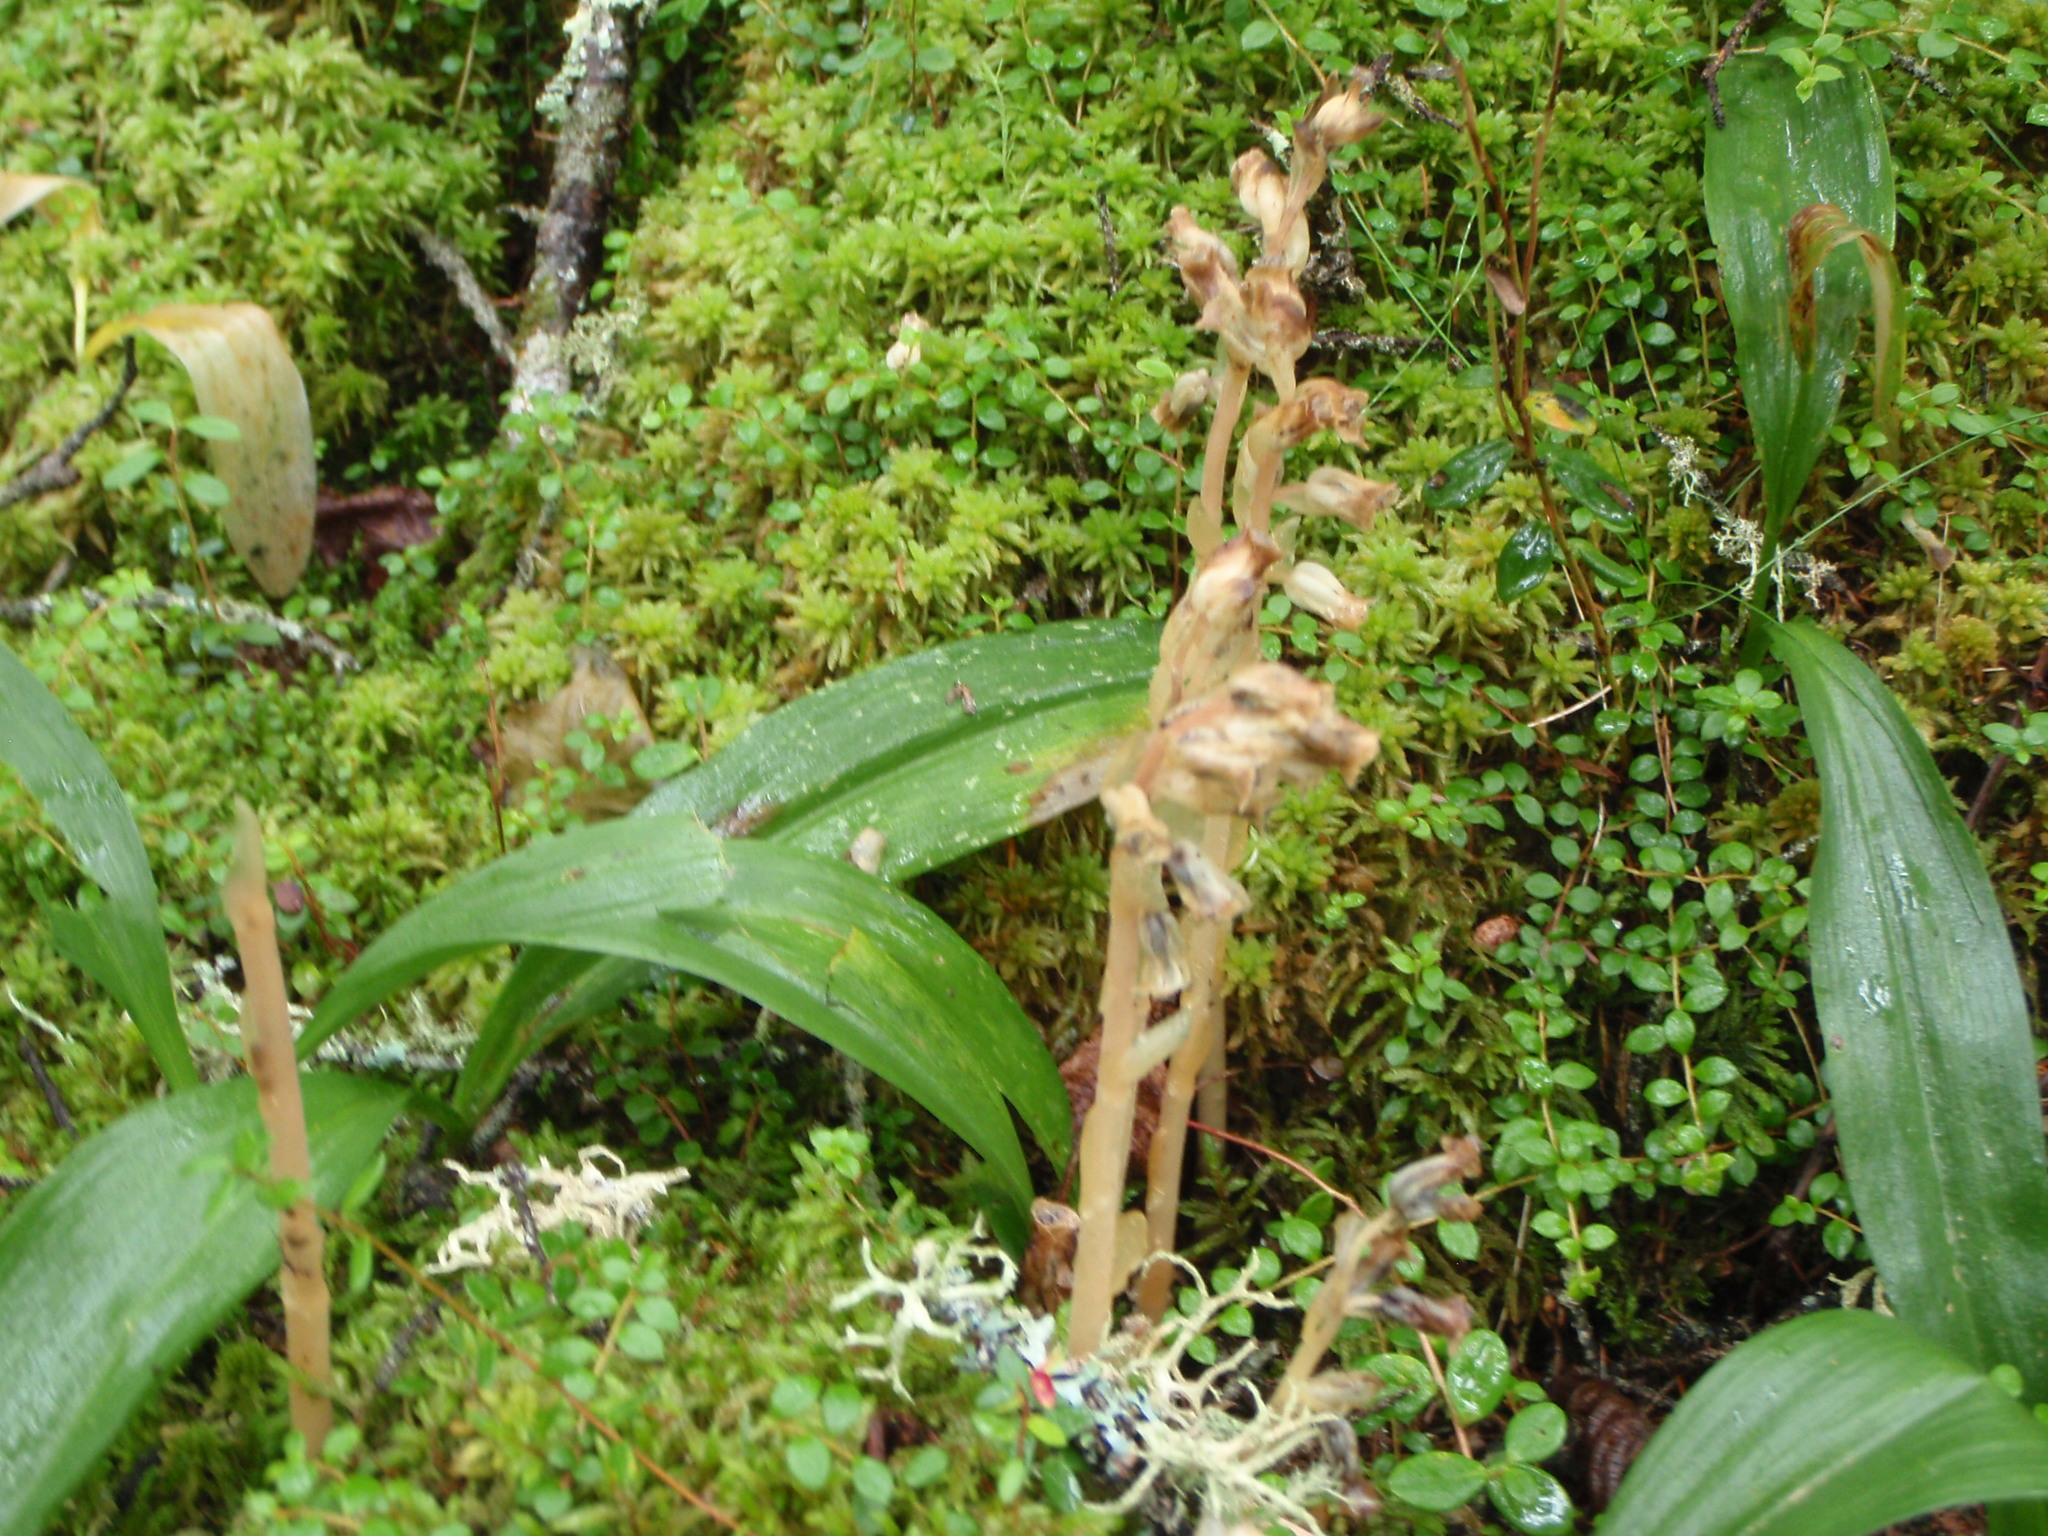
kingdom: Plantae
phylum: Tracheophyta
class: Magnoliopsida
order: Ericales
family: Ericaceae
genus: Hypopitys
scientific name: Hypopitys monotropa
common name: Yellow bird's-nest
